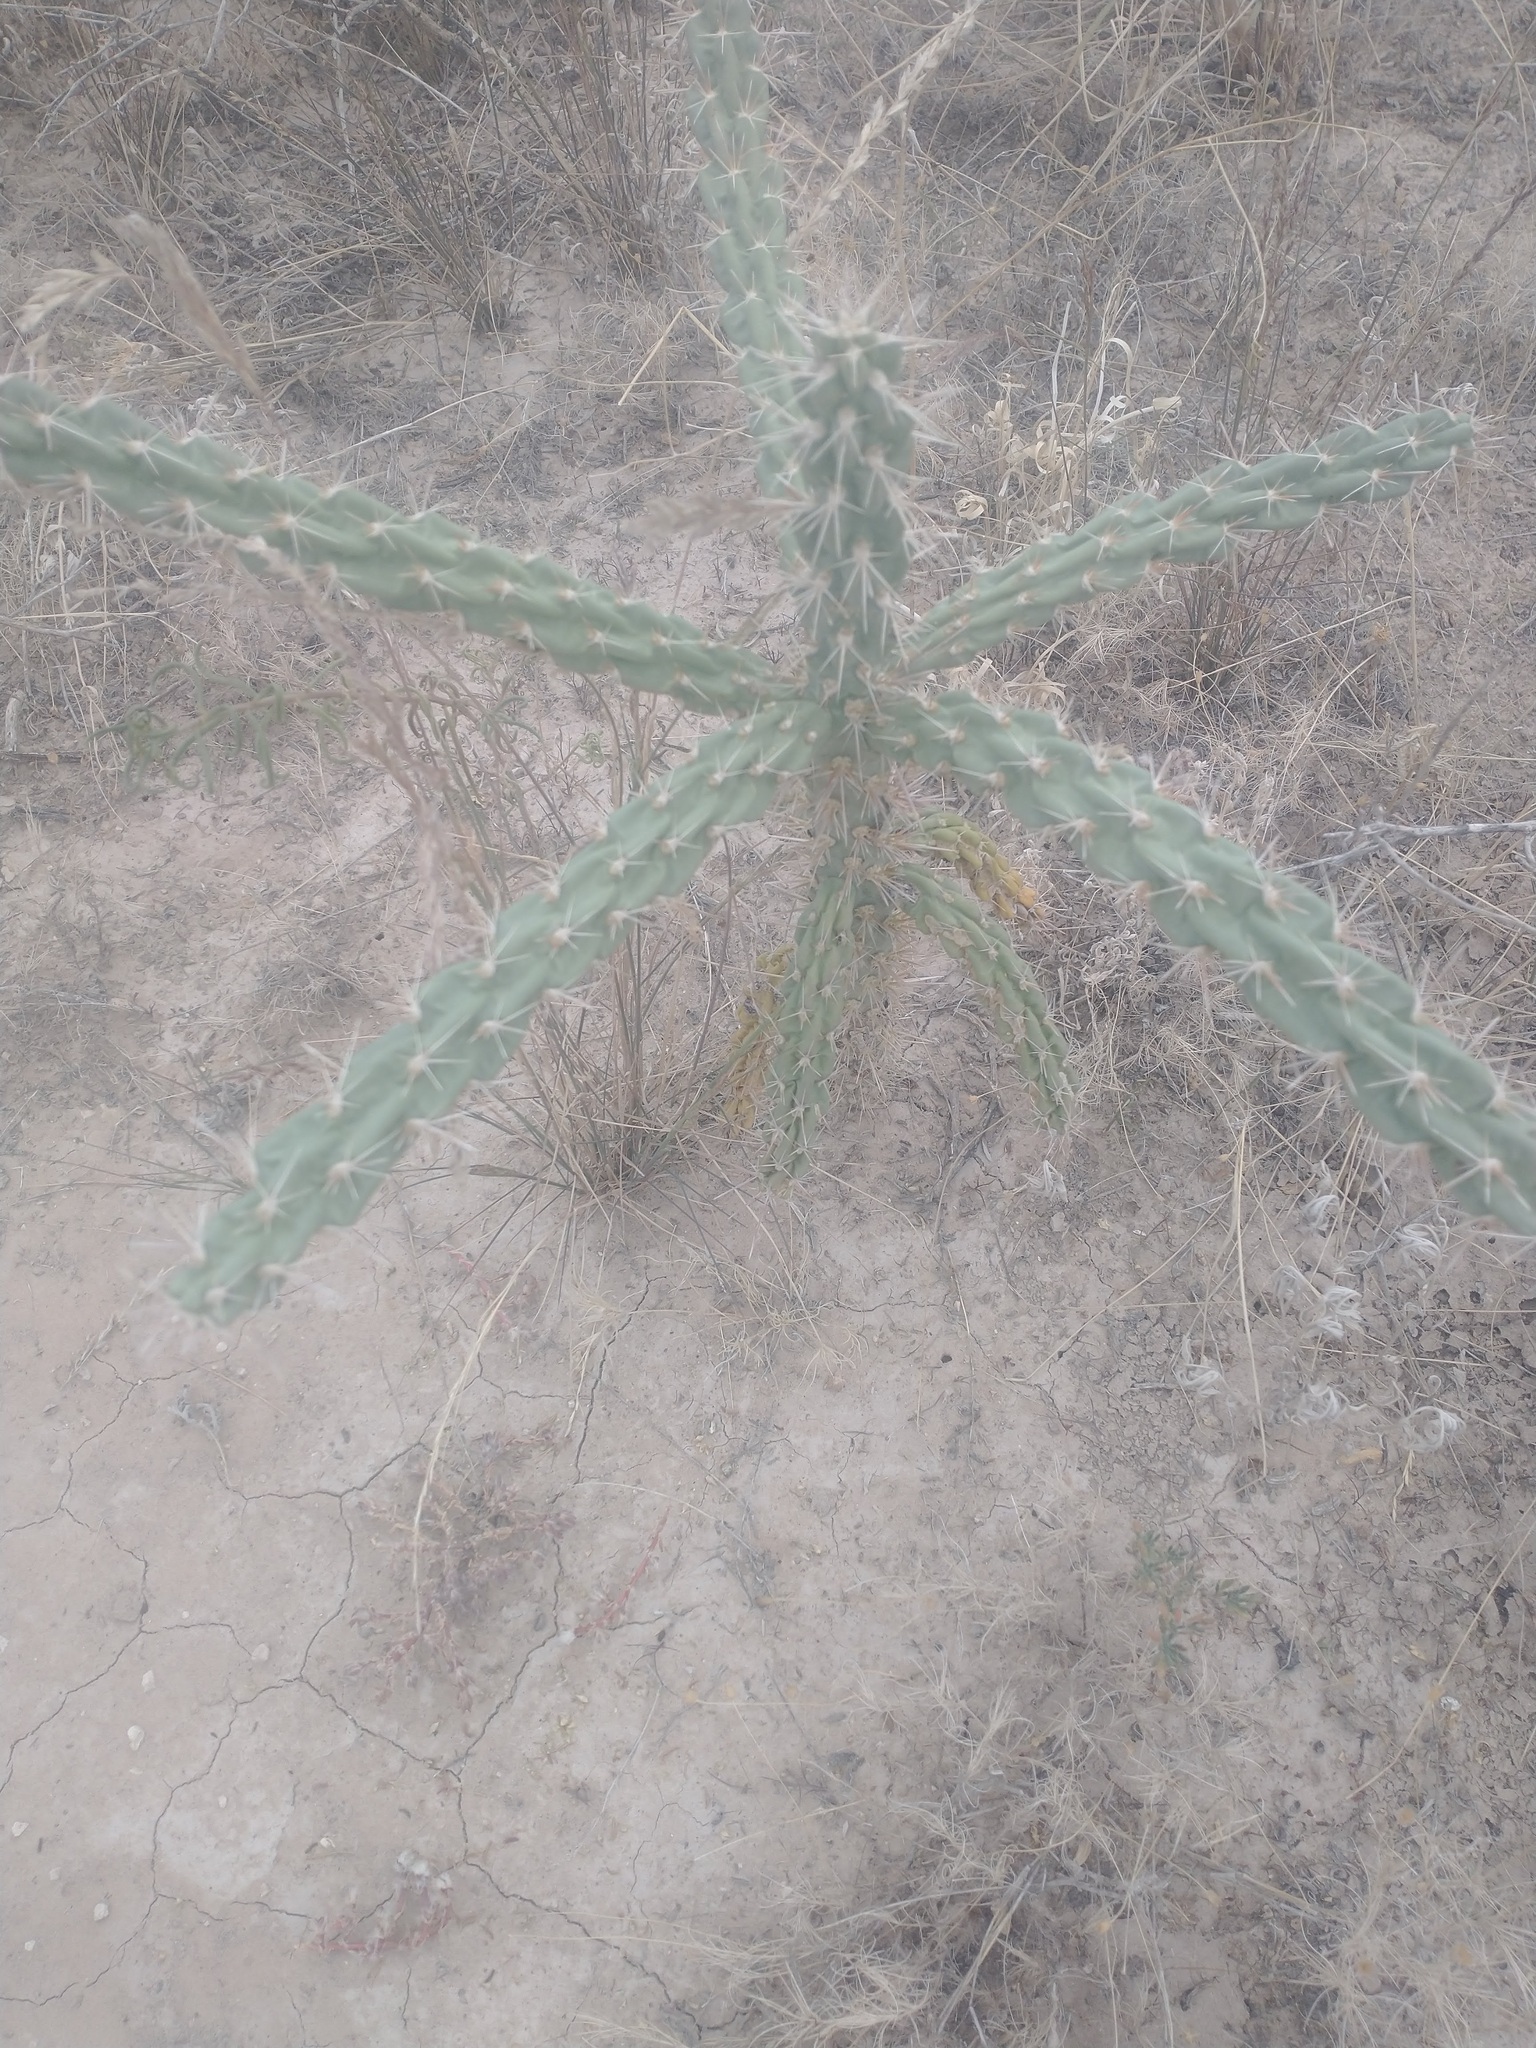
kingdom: Plantae
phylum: Tracheophyta
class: Magnoliopsida
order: Caryophyllales
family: Cactaceae
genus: Cylindropuntia
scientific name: Cylindropuntia imbricata
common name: Candelabrum cactus
